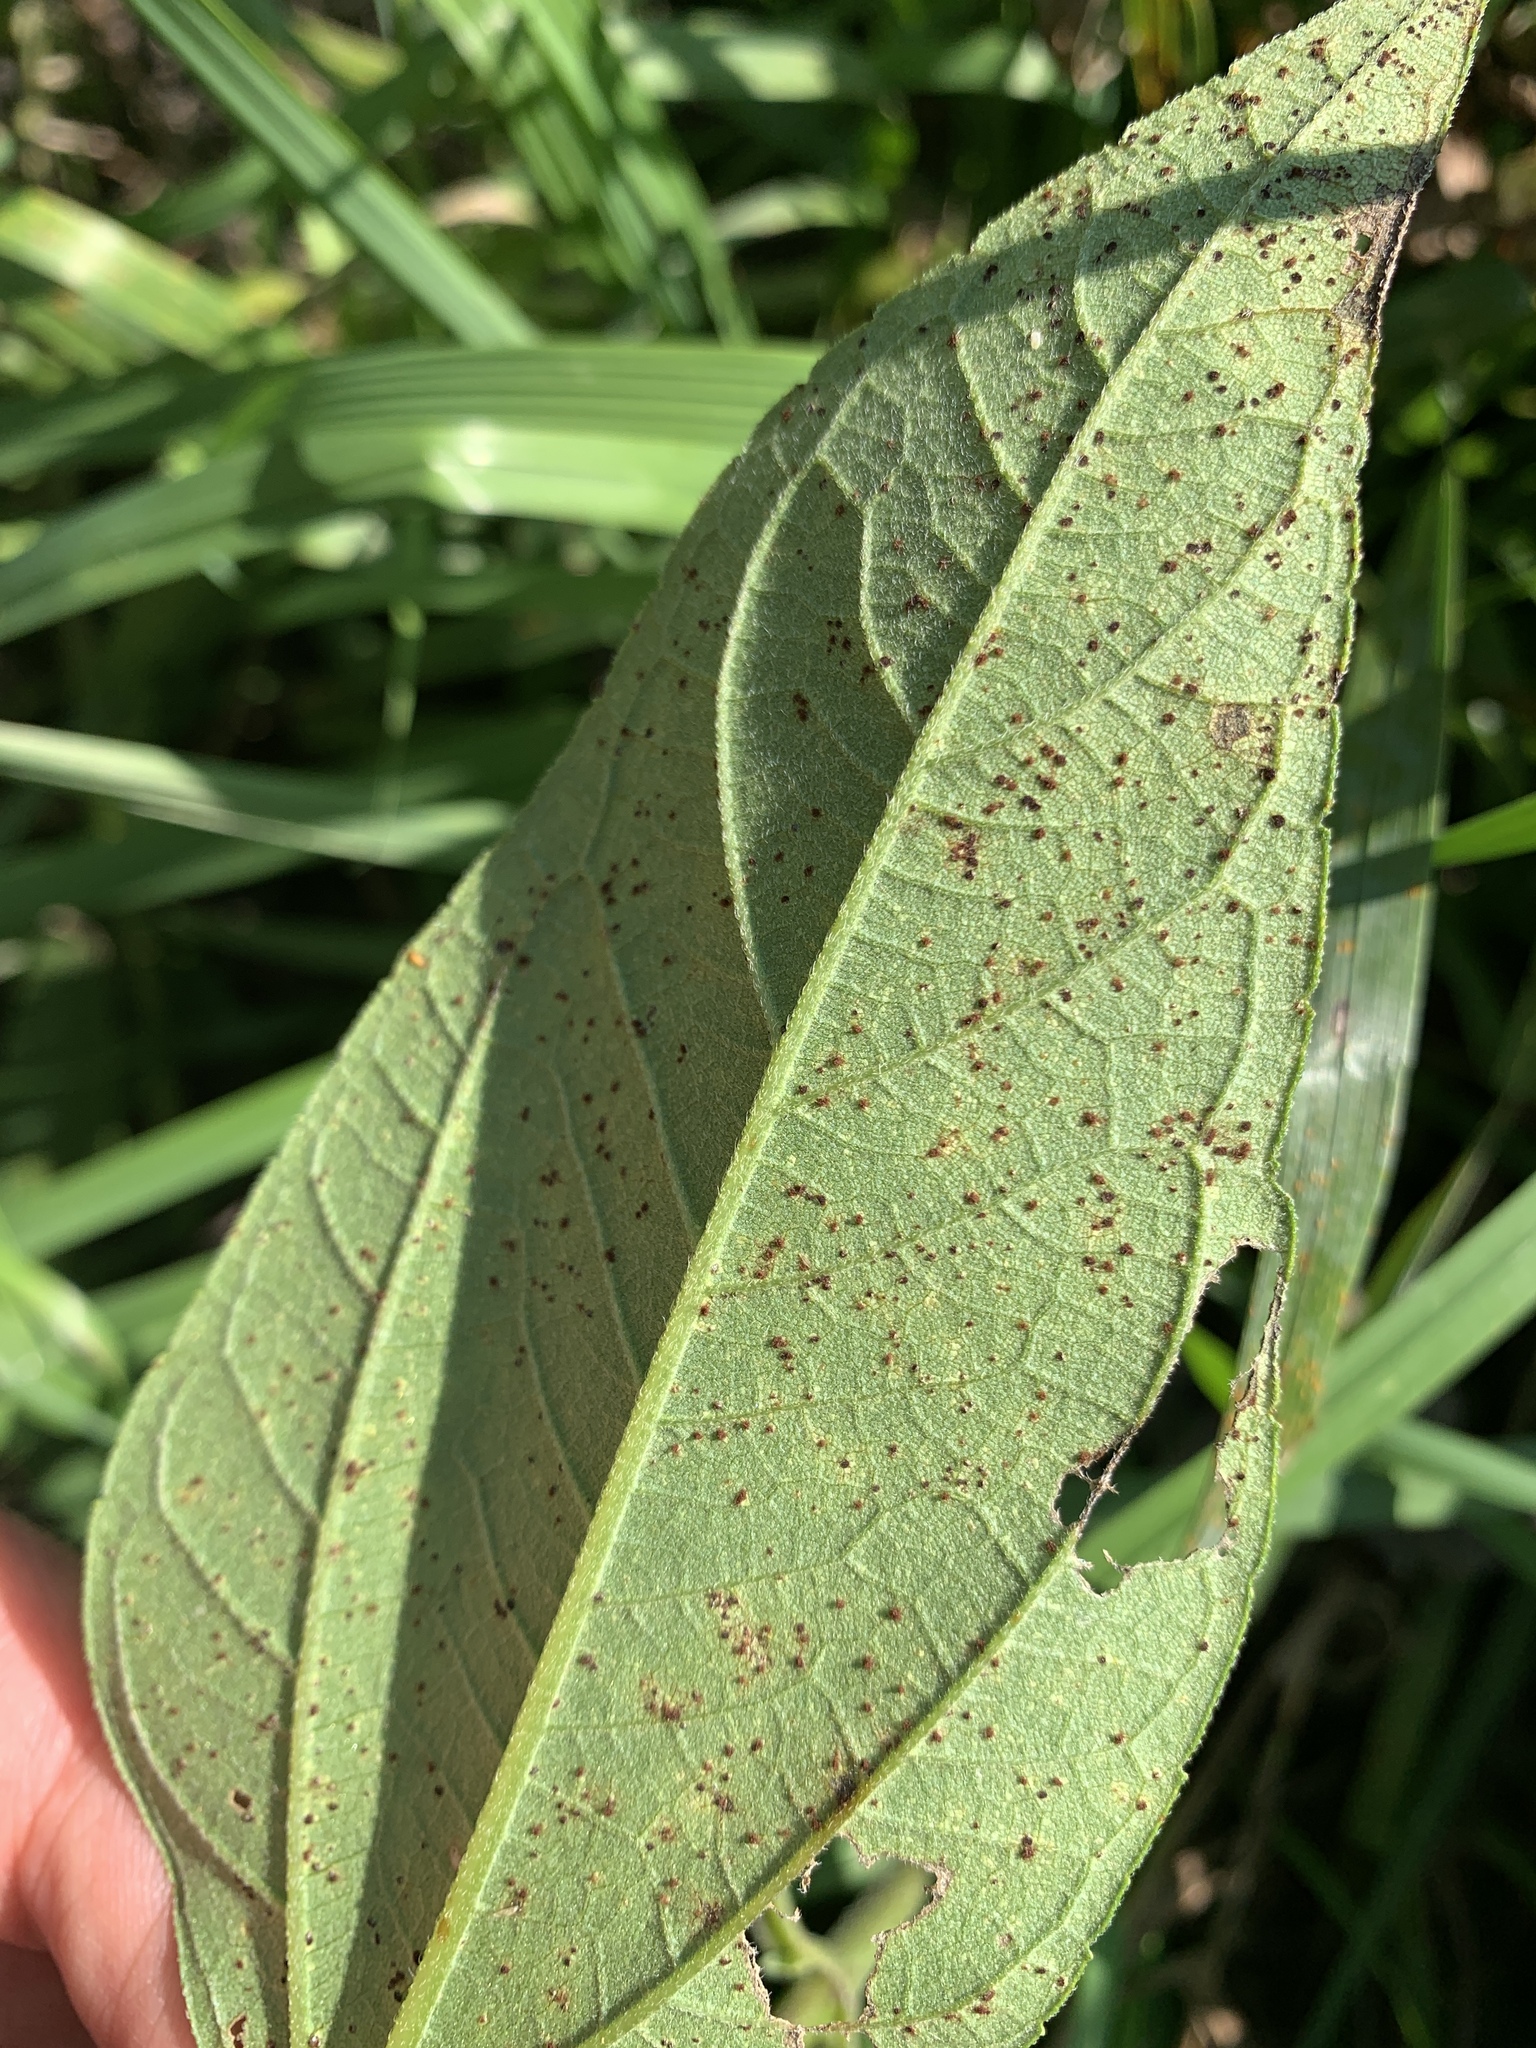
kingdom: Fungi
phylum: Basidiomycota
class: Pucciniomycetes
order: Pucciniales
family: Pucciniaceae
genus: Puccinia
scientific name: Puccinia helianthi-mollis
